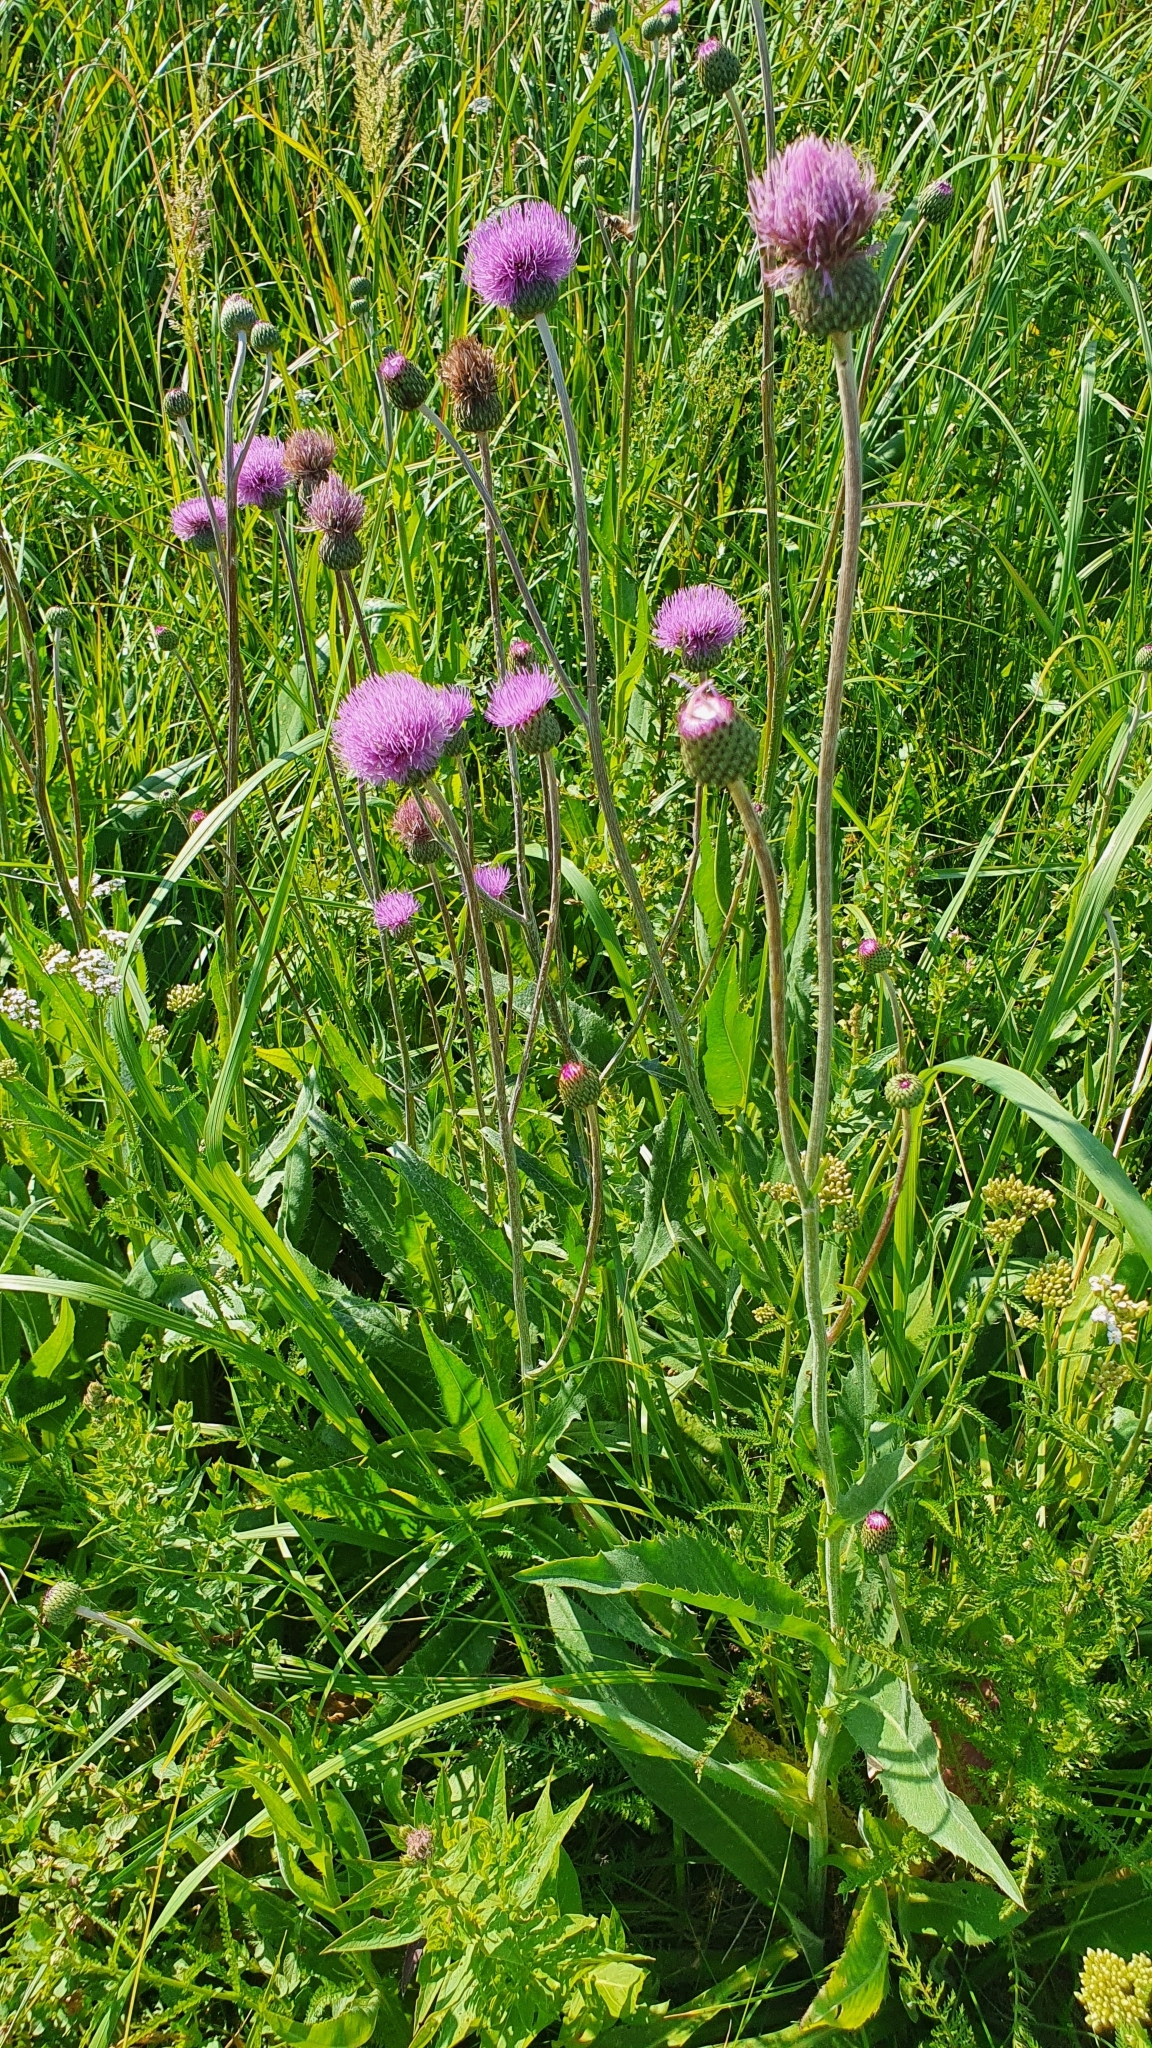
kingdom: Plantae
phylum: Tracheophyta
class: Magnoliopsida
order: Asterales
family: Asteraceae
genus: Cirsium
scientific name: Cirsium canum
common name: Queen anne's thistle
